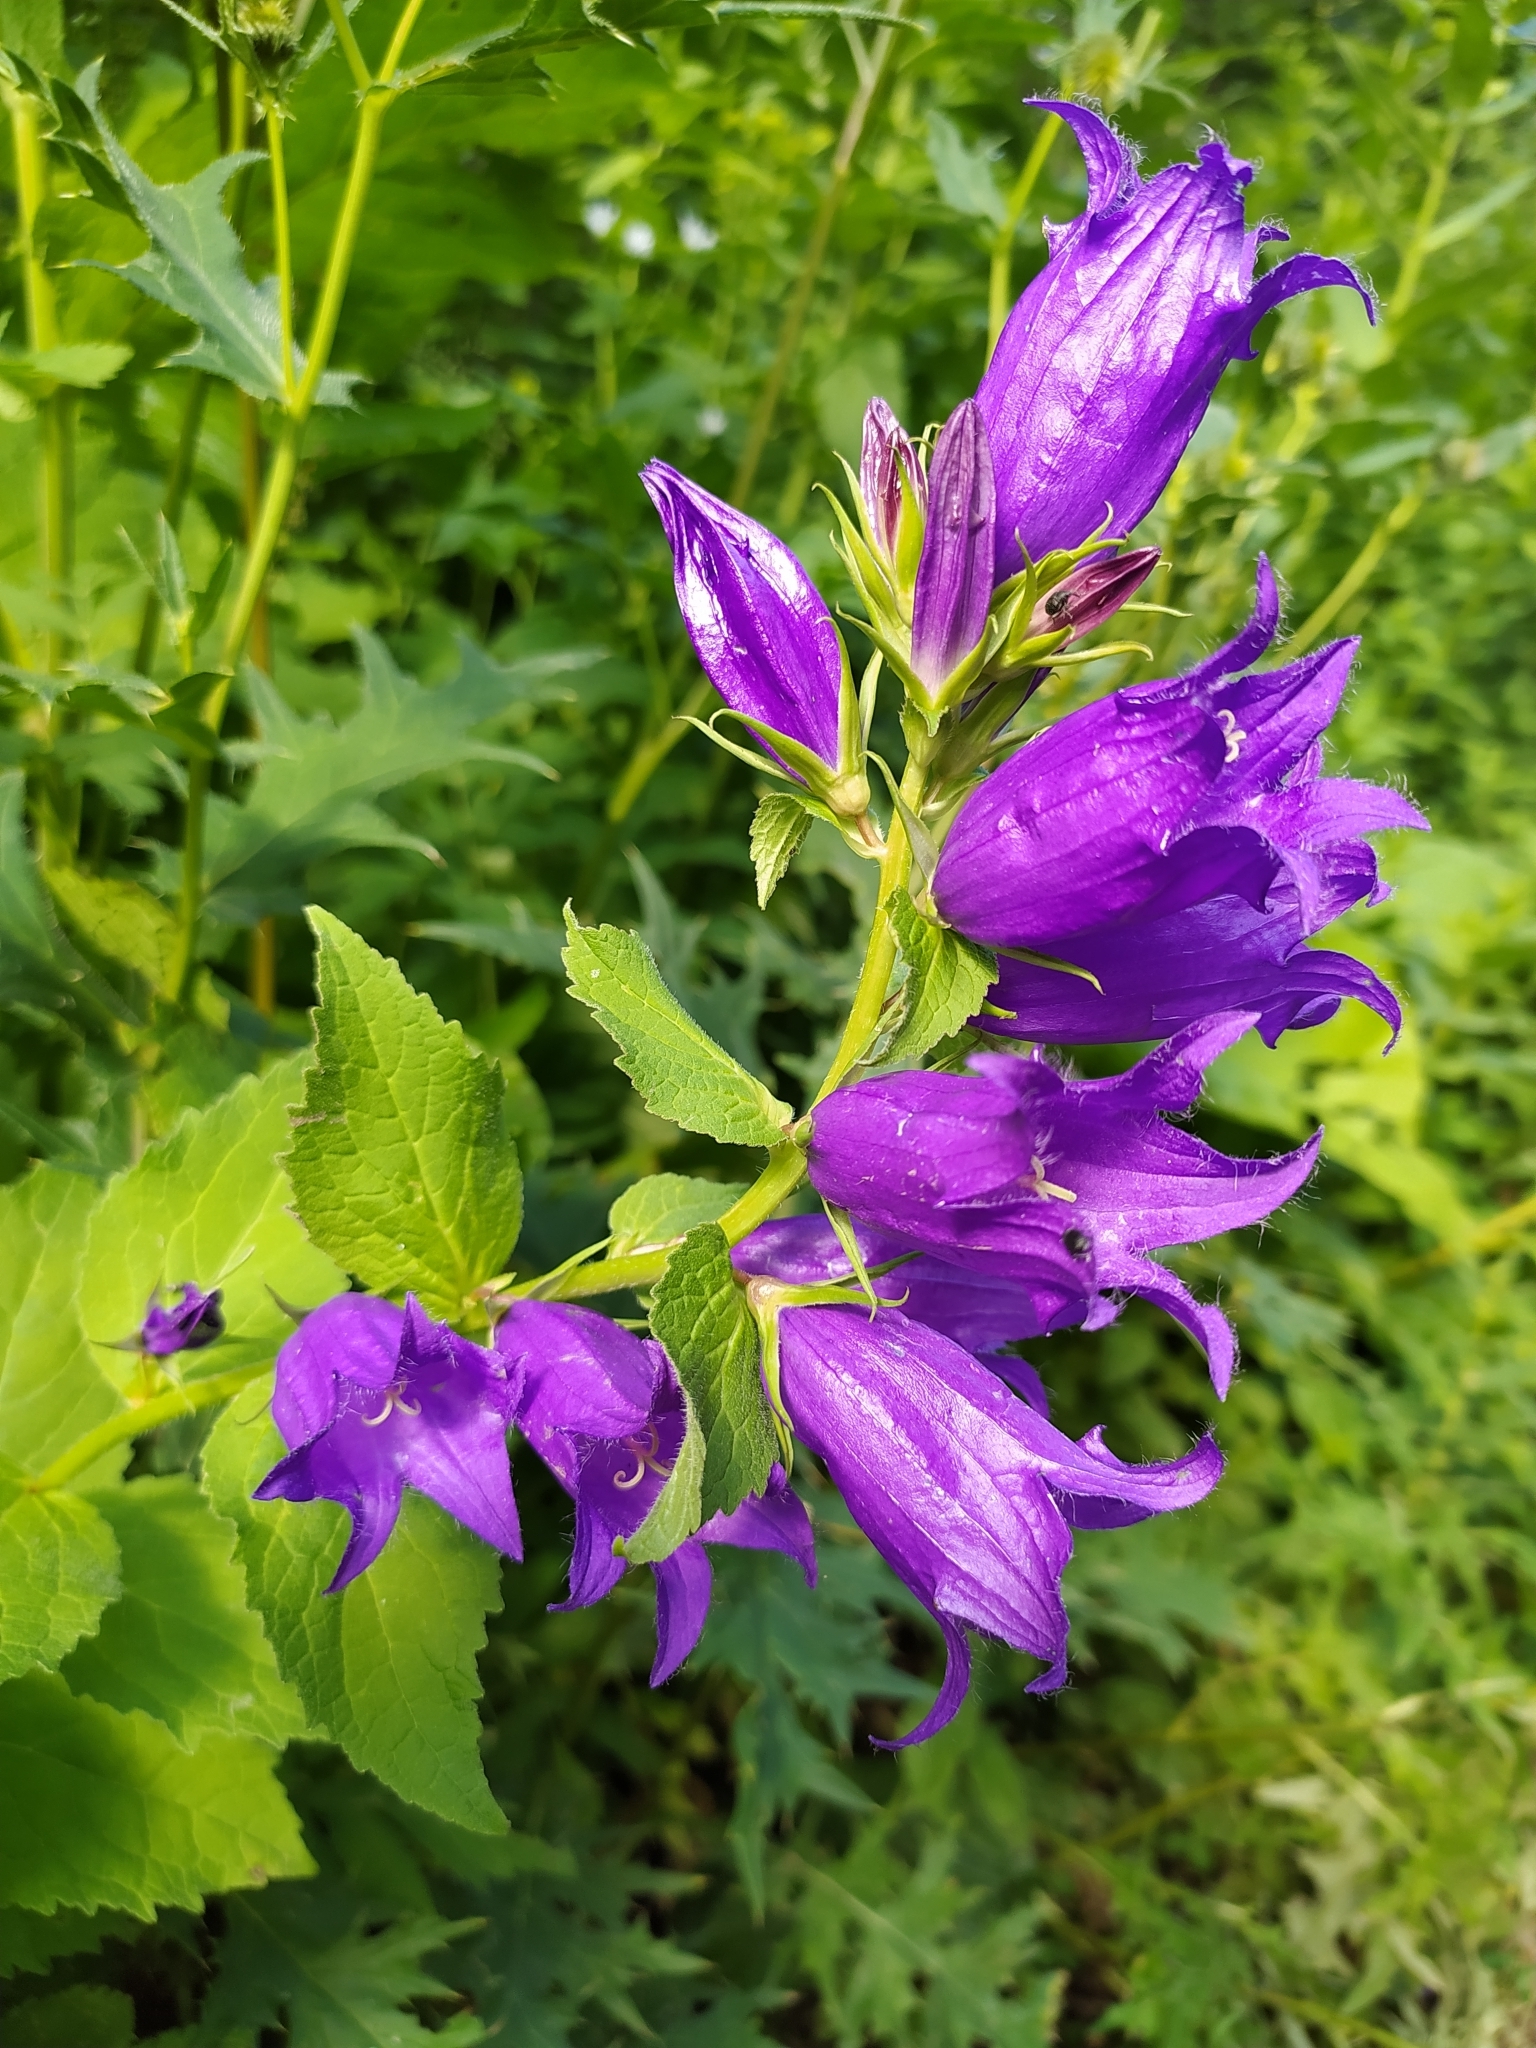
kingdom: Plantae
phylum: Tracheophyta
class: Magnoliopsida
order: Asterales
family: Campanulaceae
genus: Campanula
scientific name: Campanula latifolia
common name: Giant bellflower
